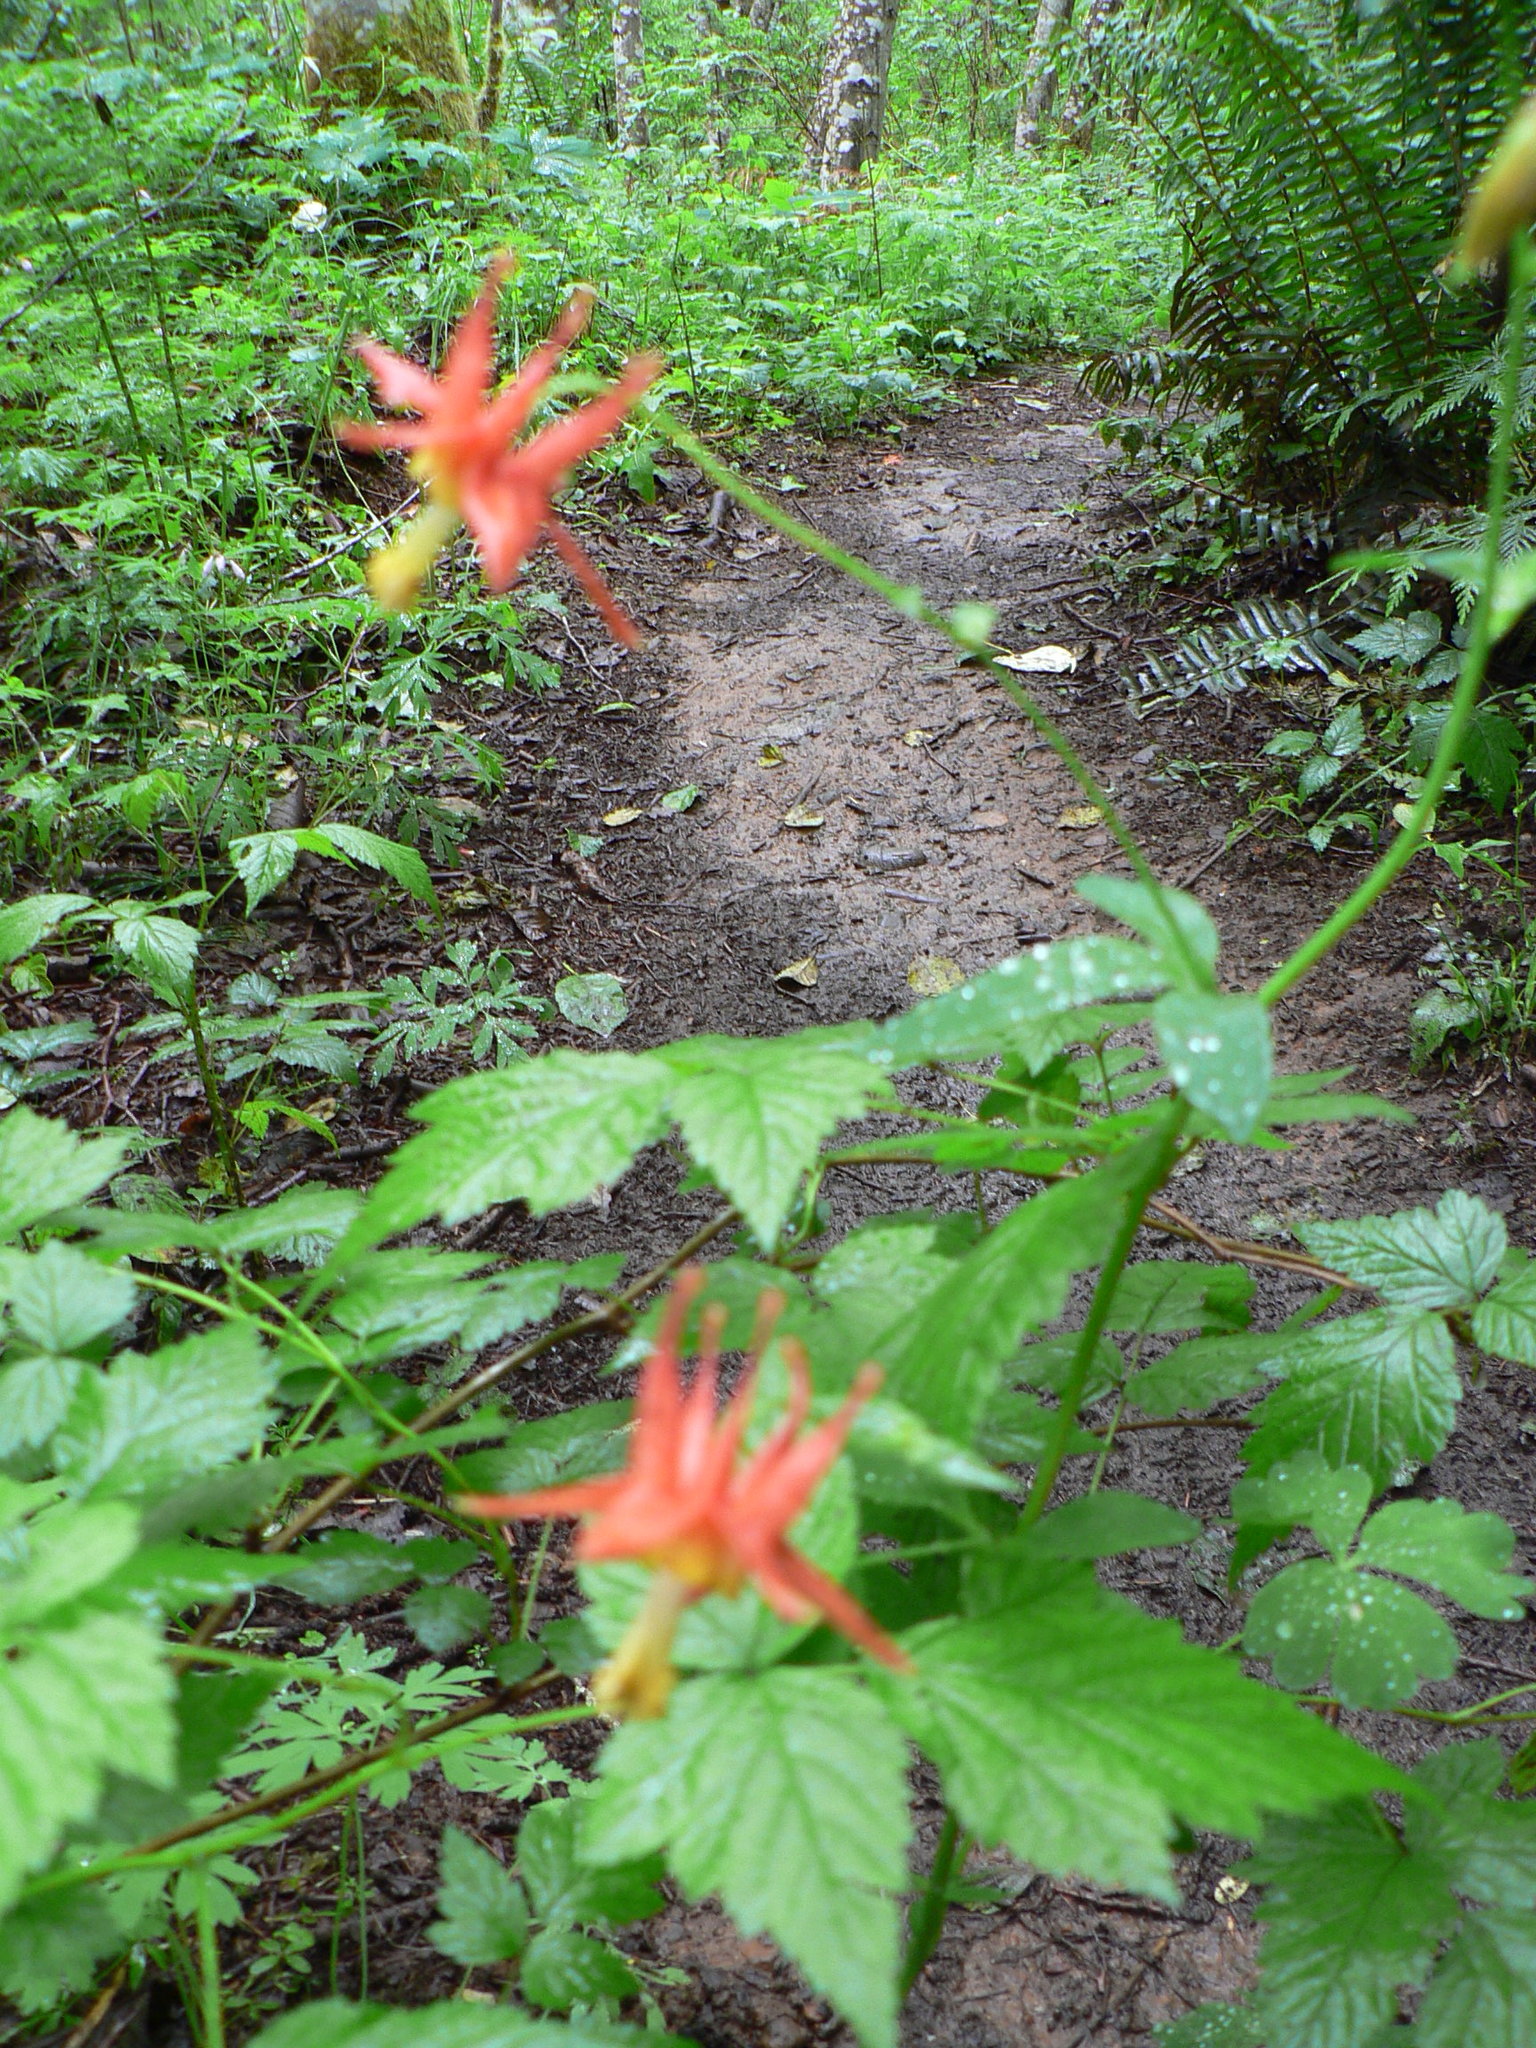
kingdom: Plantae
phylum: Tracheophyta
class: Magnoliopsida
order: Ranunculales
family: Ranunculaceae
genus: Aquilegia
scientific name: Aquilegia formosa
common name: Sitka columbine
